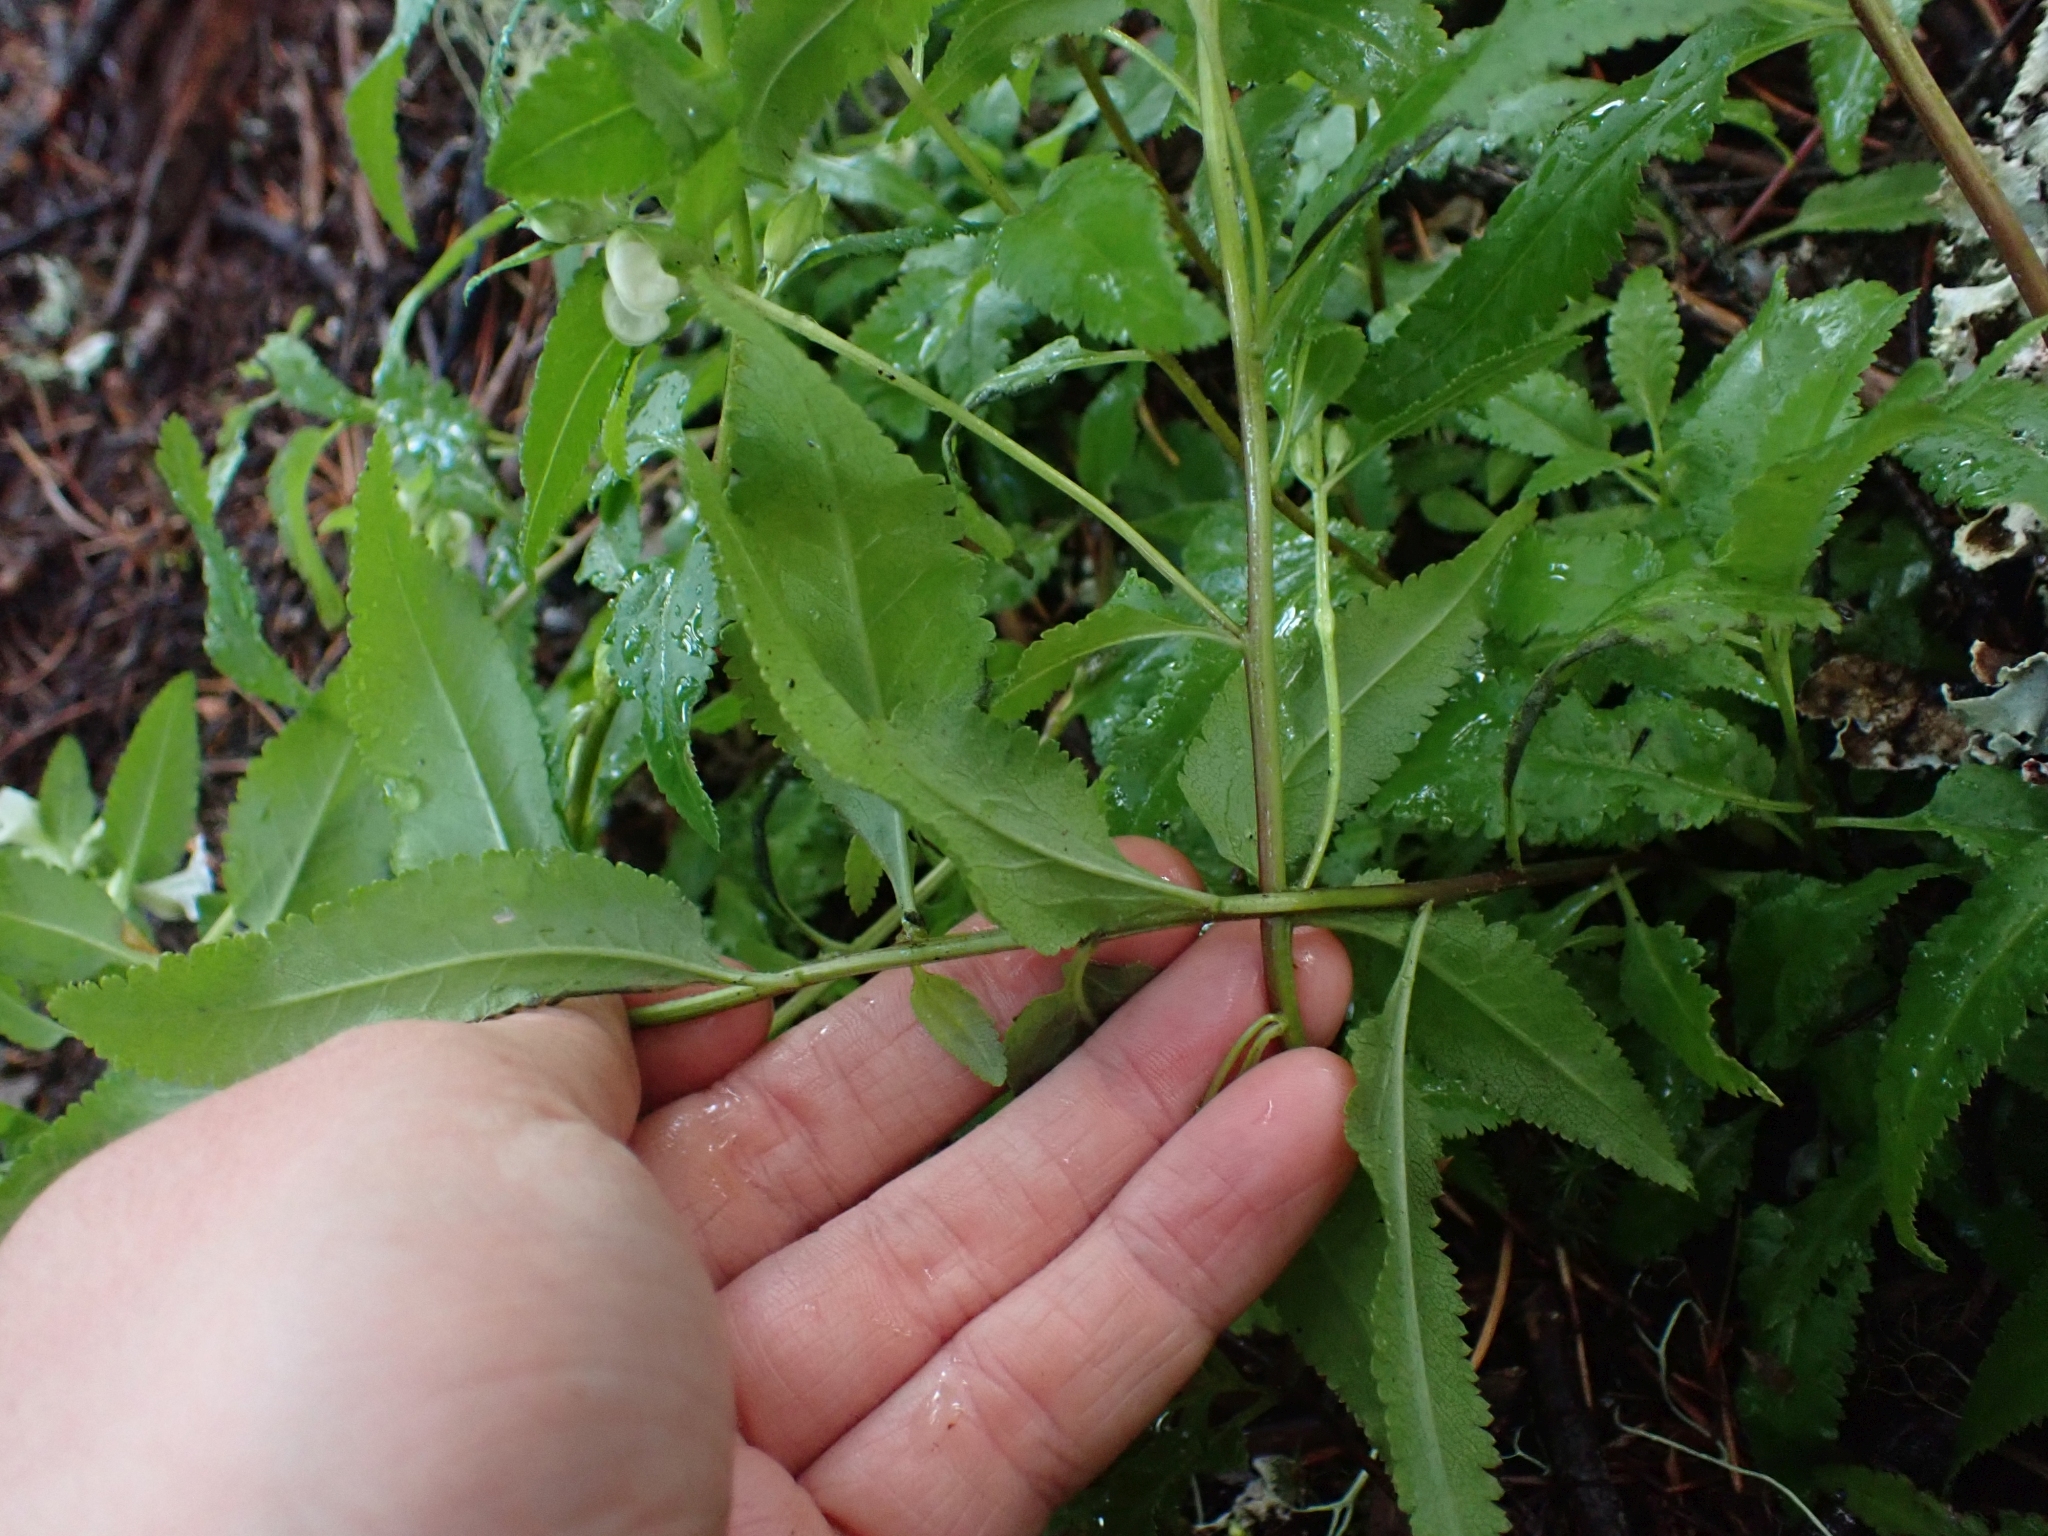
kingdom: Plantae
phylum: Tracheophyta
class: Magnoliopsida
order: Lamiales
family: Orobanchaceae
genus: Pedicularis
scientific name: Pedicularis racemosa
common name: Leafy lousewort
